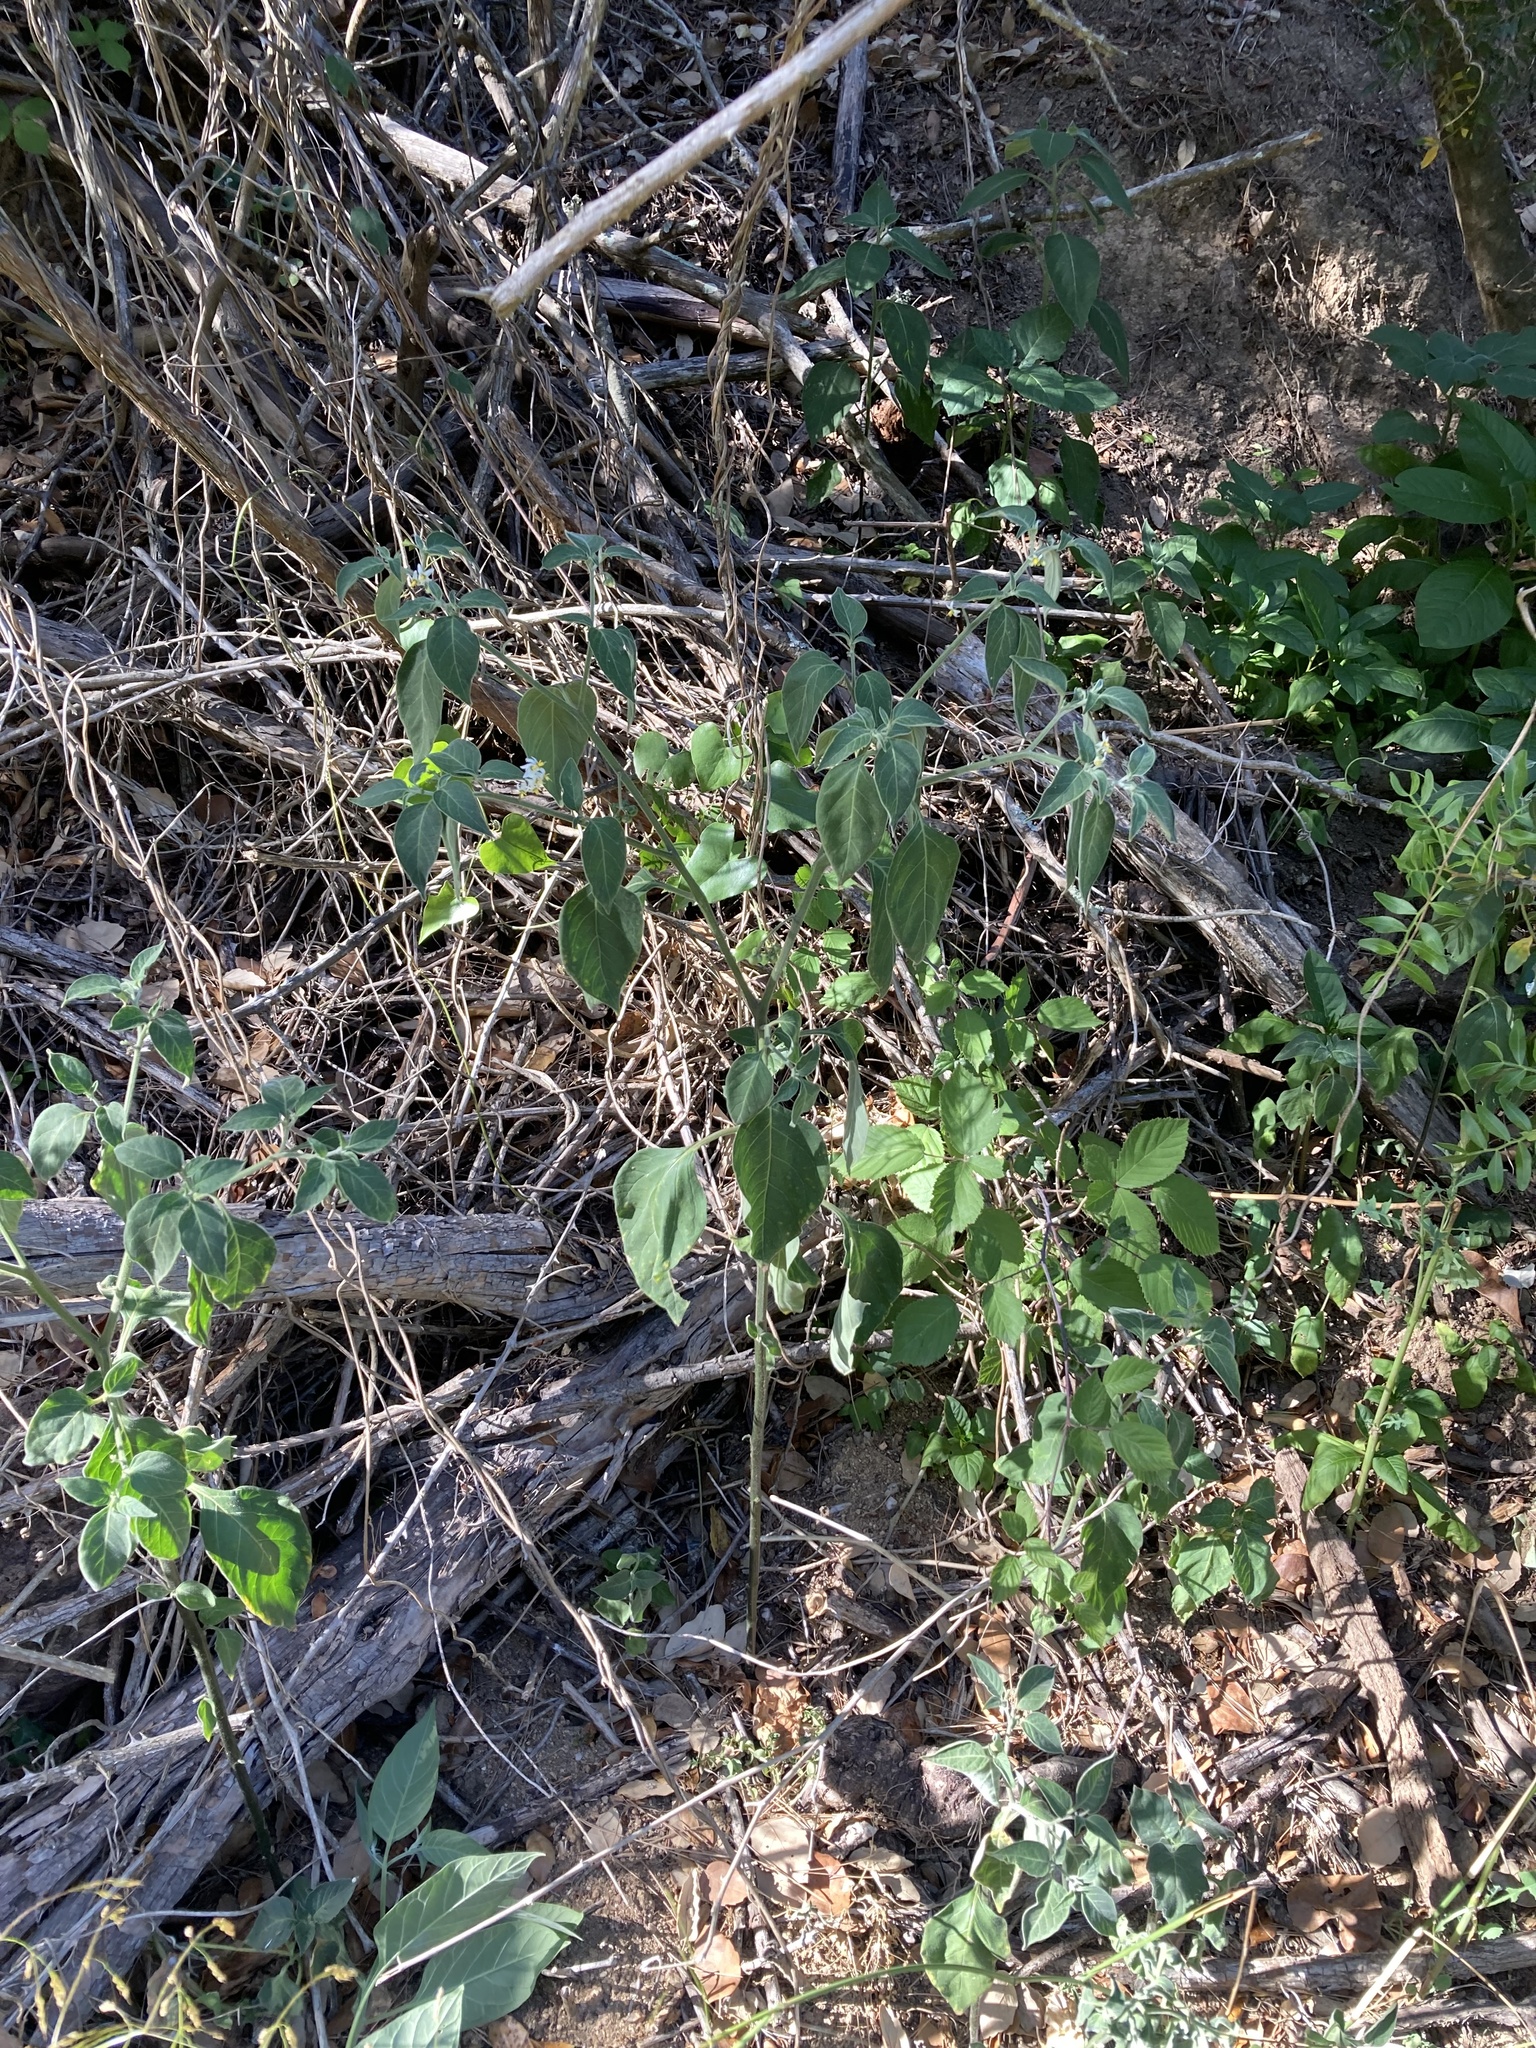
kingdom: Plantae
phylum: Tracheophyta
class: Magnoliopsida
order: Solanales
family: Solanaceae
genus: Solanum
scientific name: Solanum chenopodioides
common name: Tall nightshade
